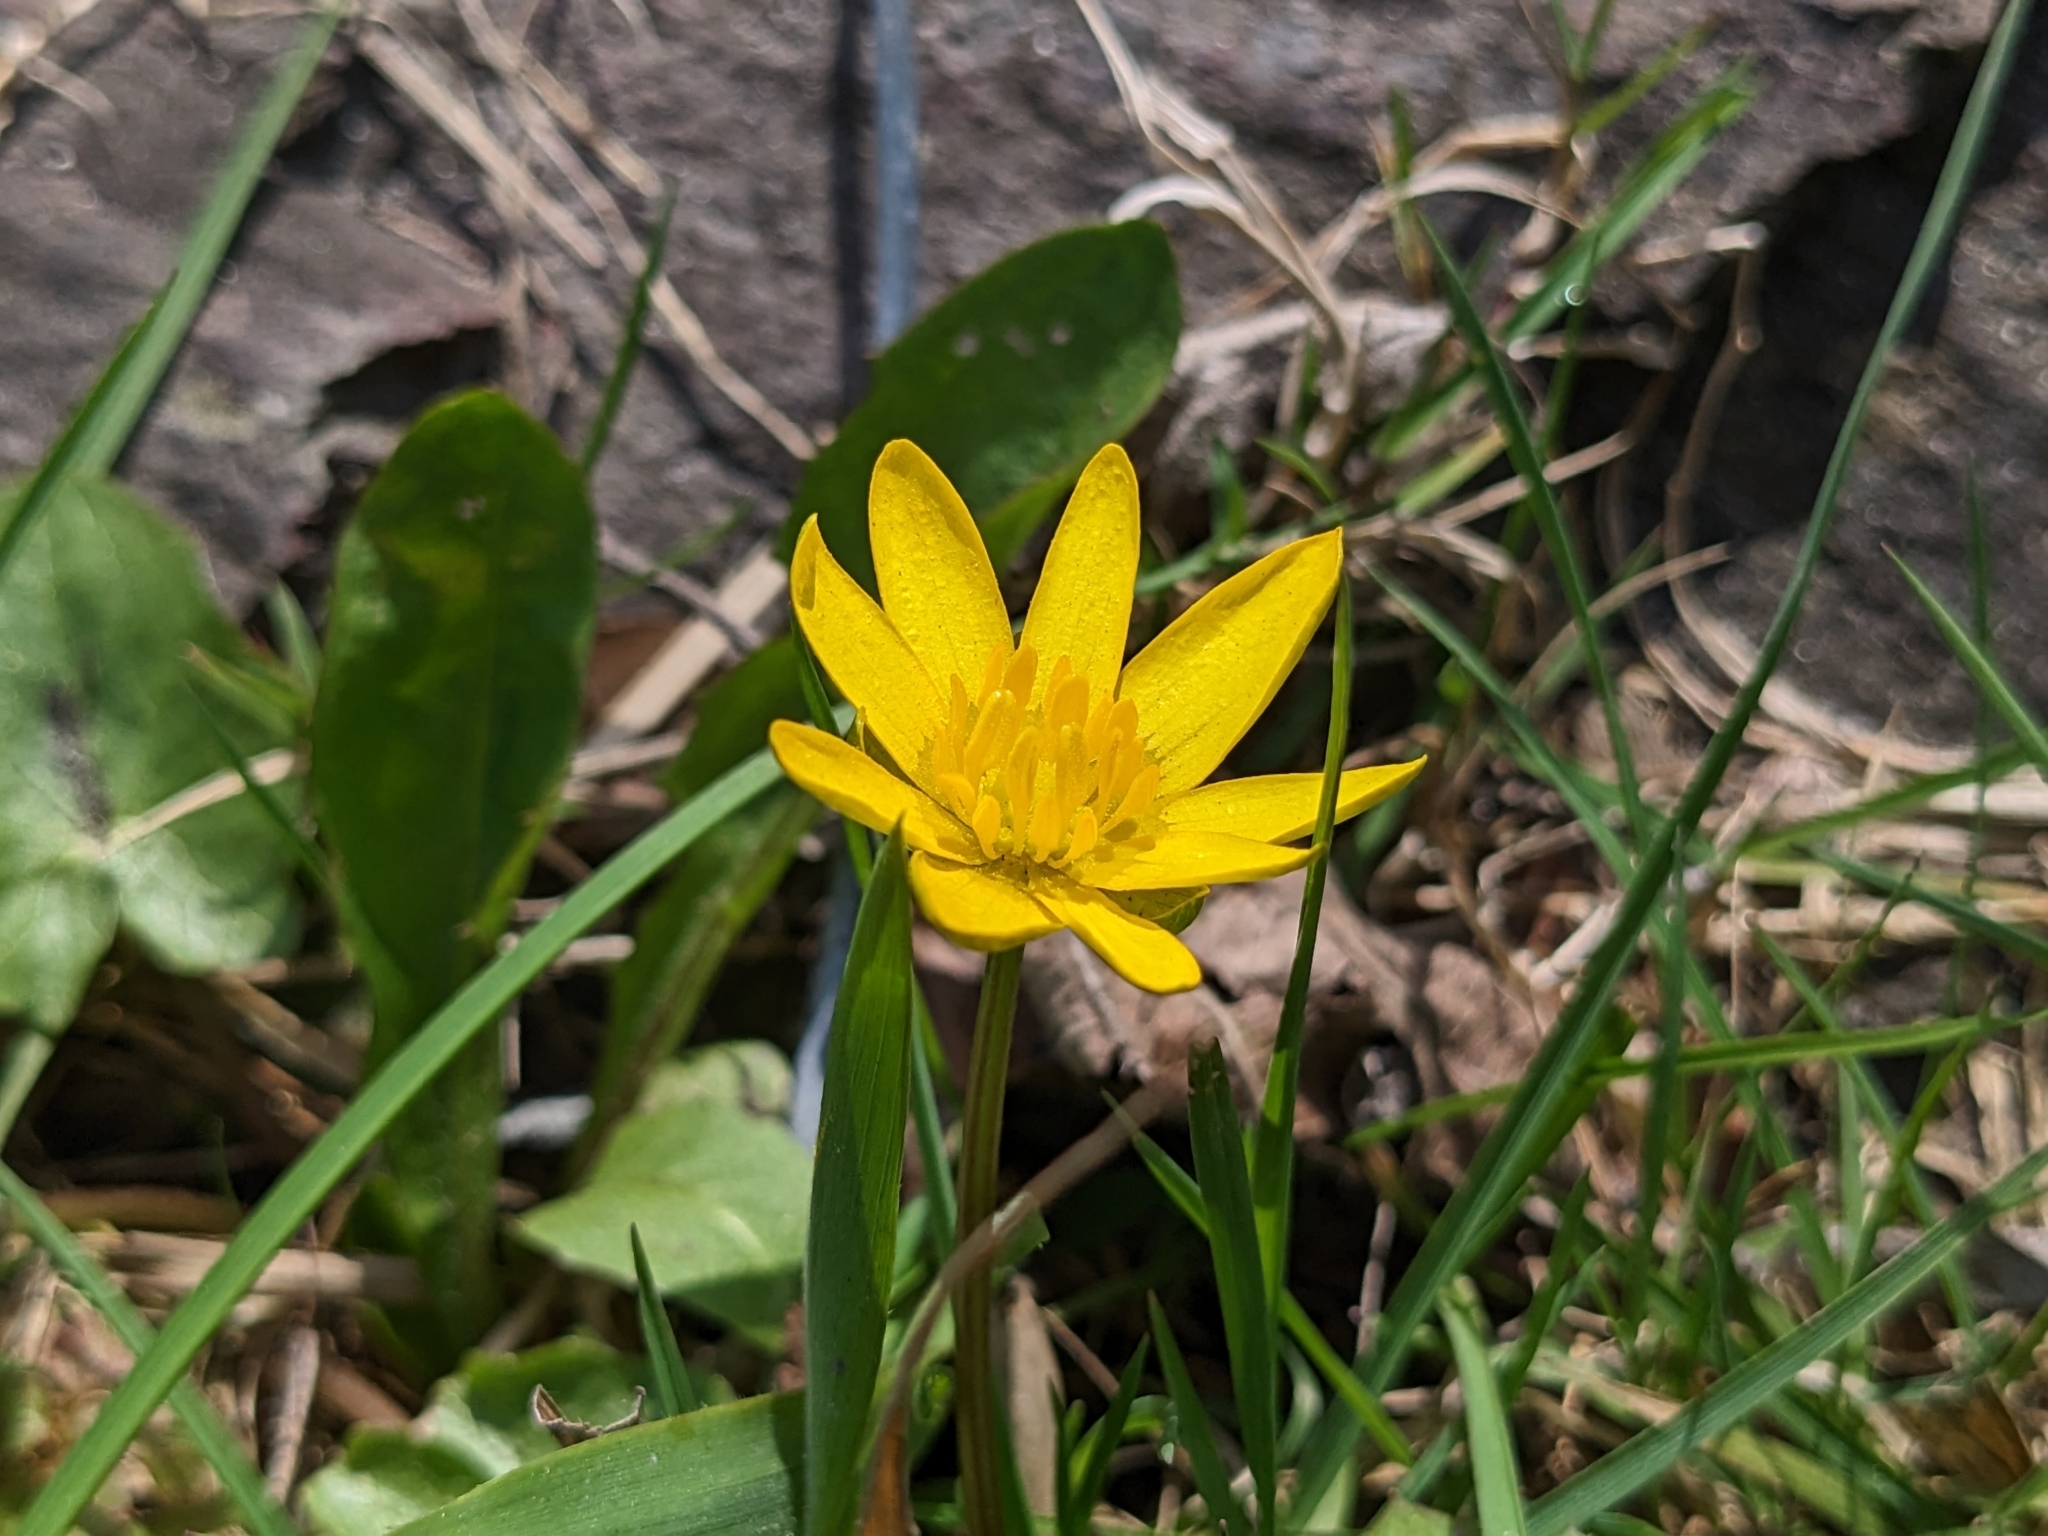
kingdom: Plantae
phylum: Tracheophyta
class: Magnoliopsida
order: Ranunculales
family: Ranunculaceae
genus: Ficaria
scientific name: Ficaria verna
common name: Lesser celandine
